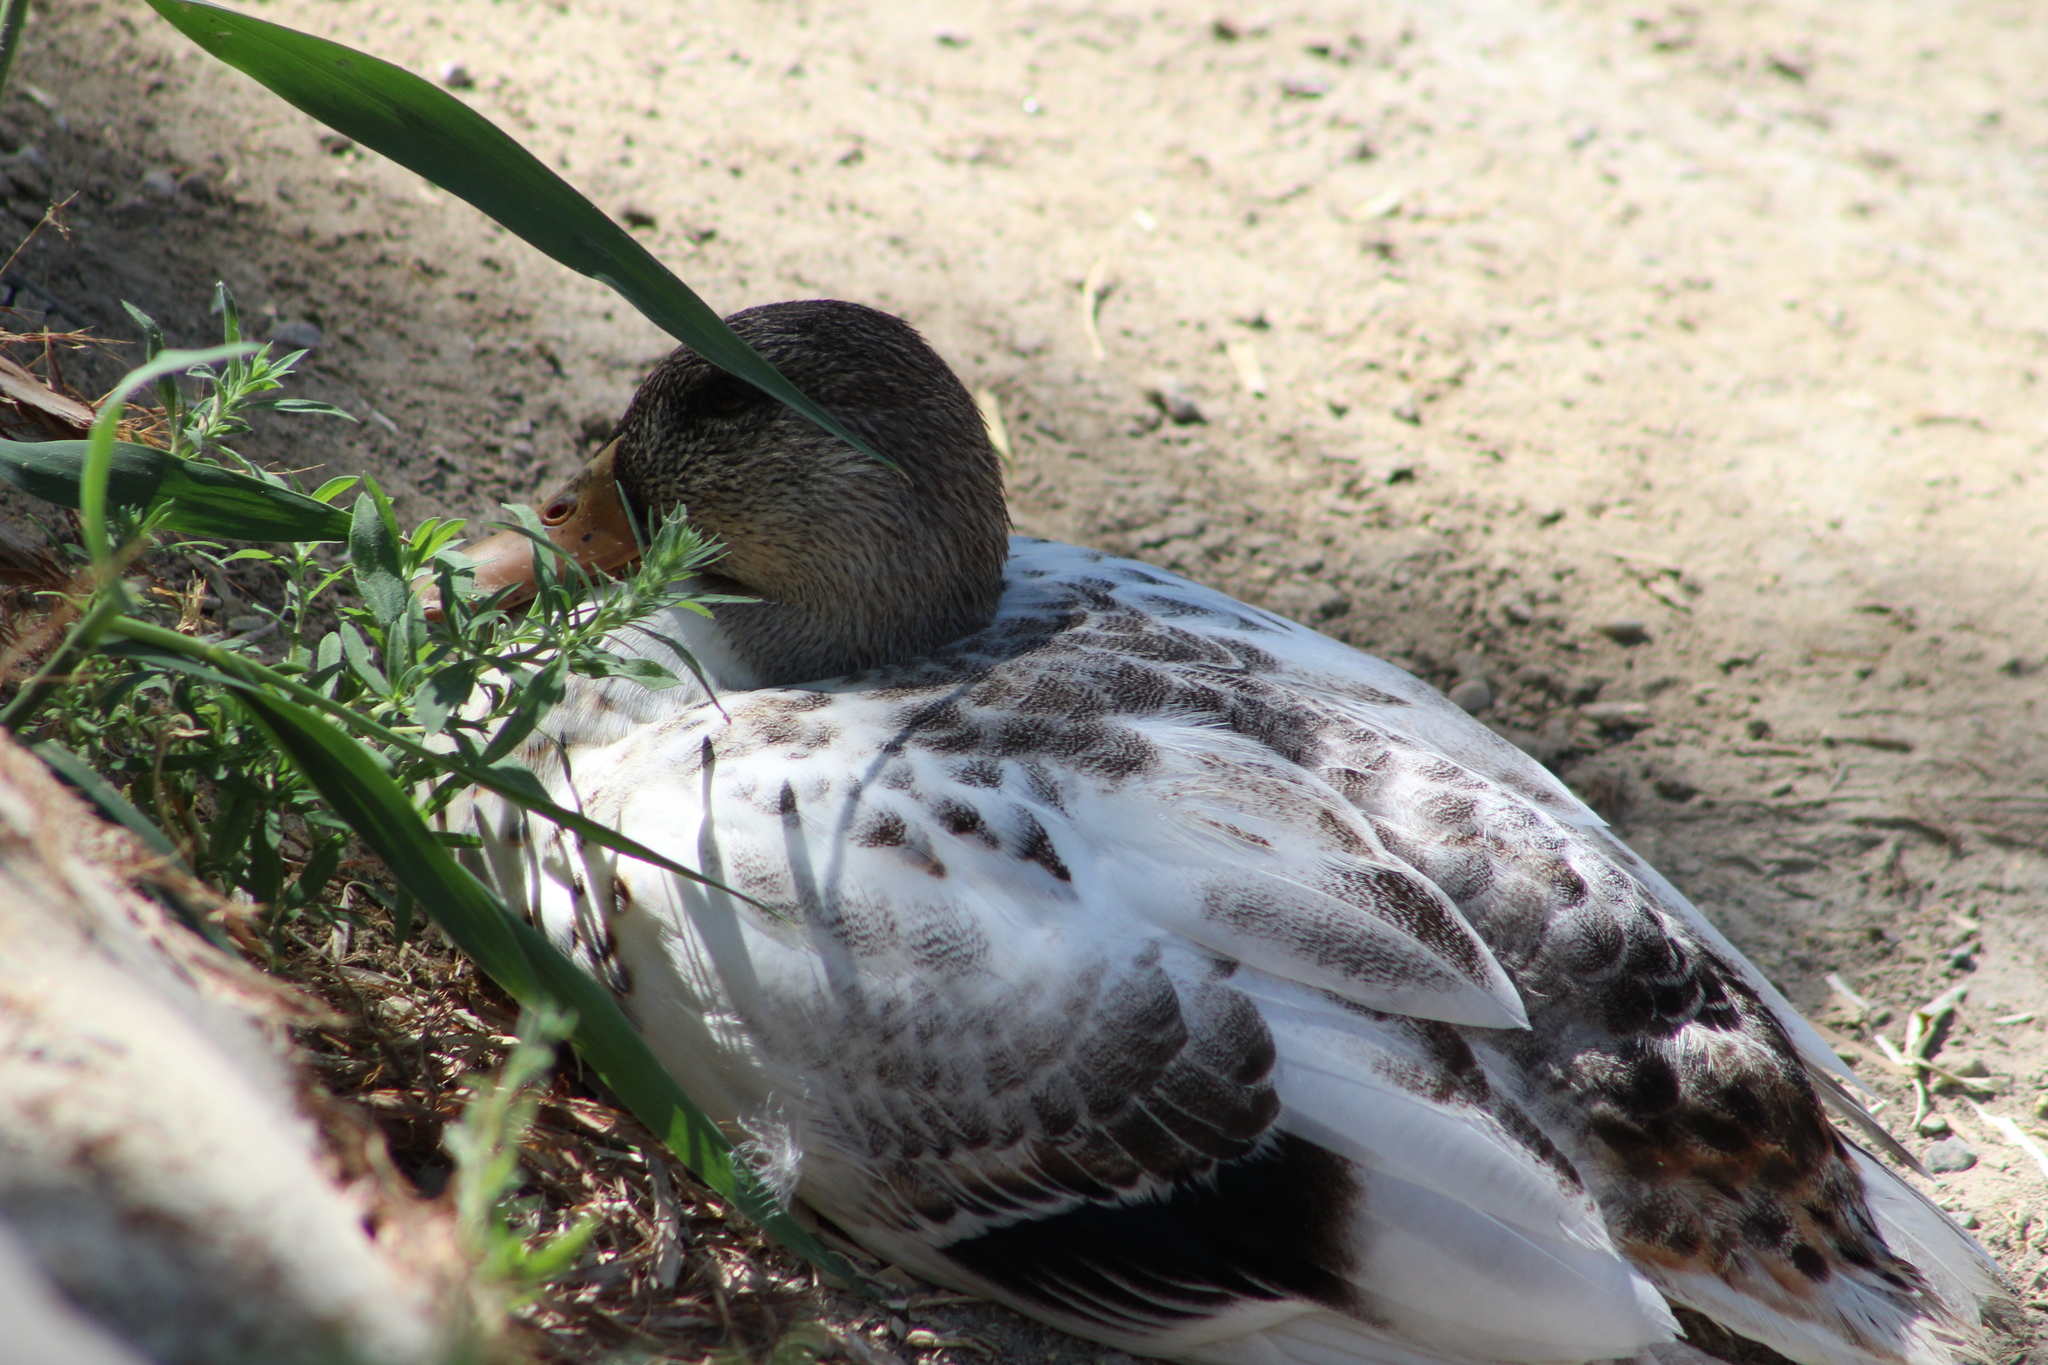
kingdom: Animalia
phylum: Chordata
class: Aves
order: Anseriformes
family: Anatidae
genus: Anas
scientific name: Anas platyrhynchos
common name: Mallard
